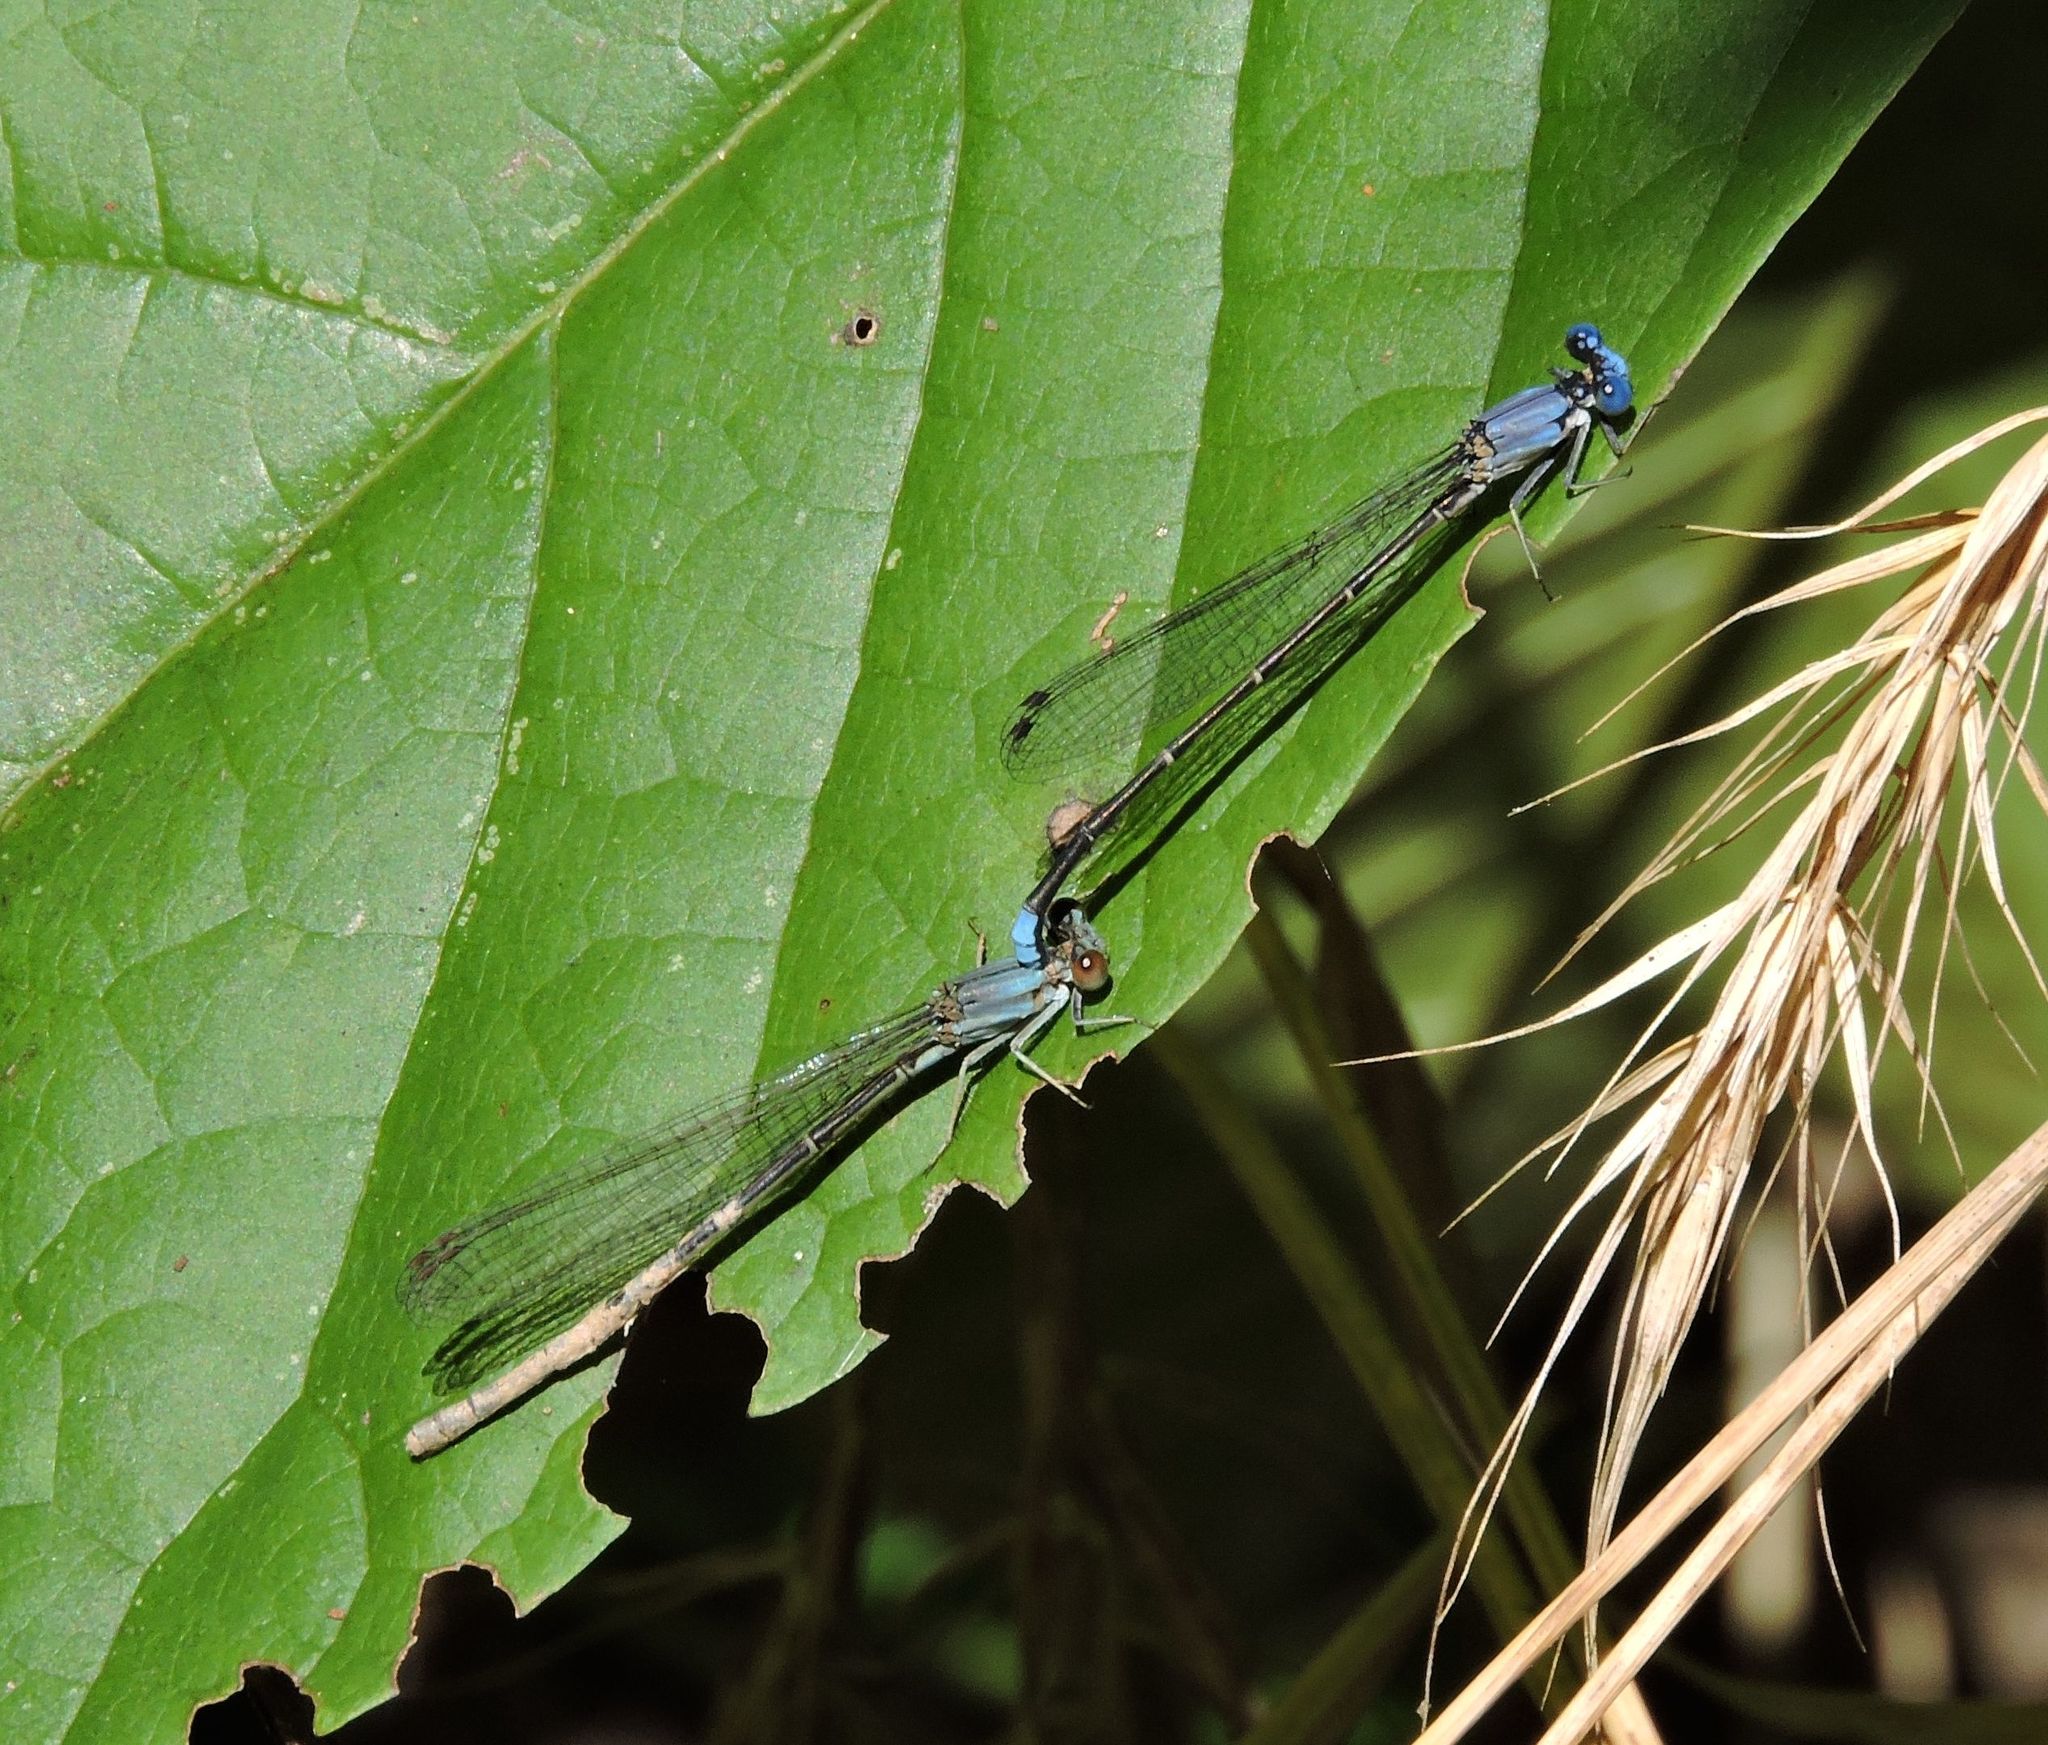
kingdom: Animalia
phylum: Arthropoda
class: Insecta
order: Odonata
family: Coenagrionidae
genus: Argia
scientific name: Argia apicalis
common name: Blue-fronted dancer
